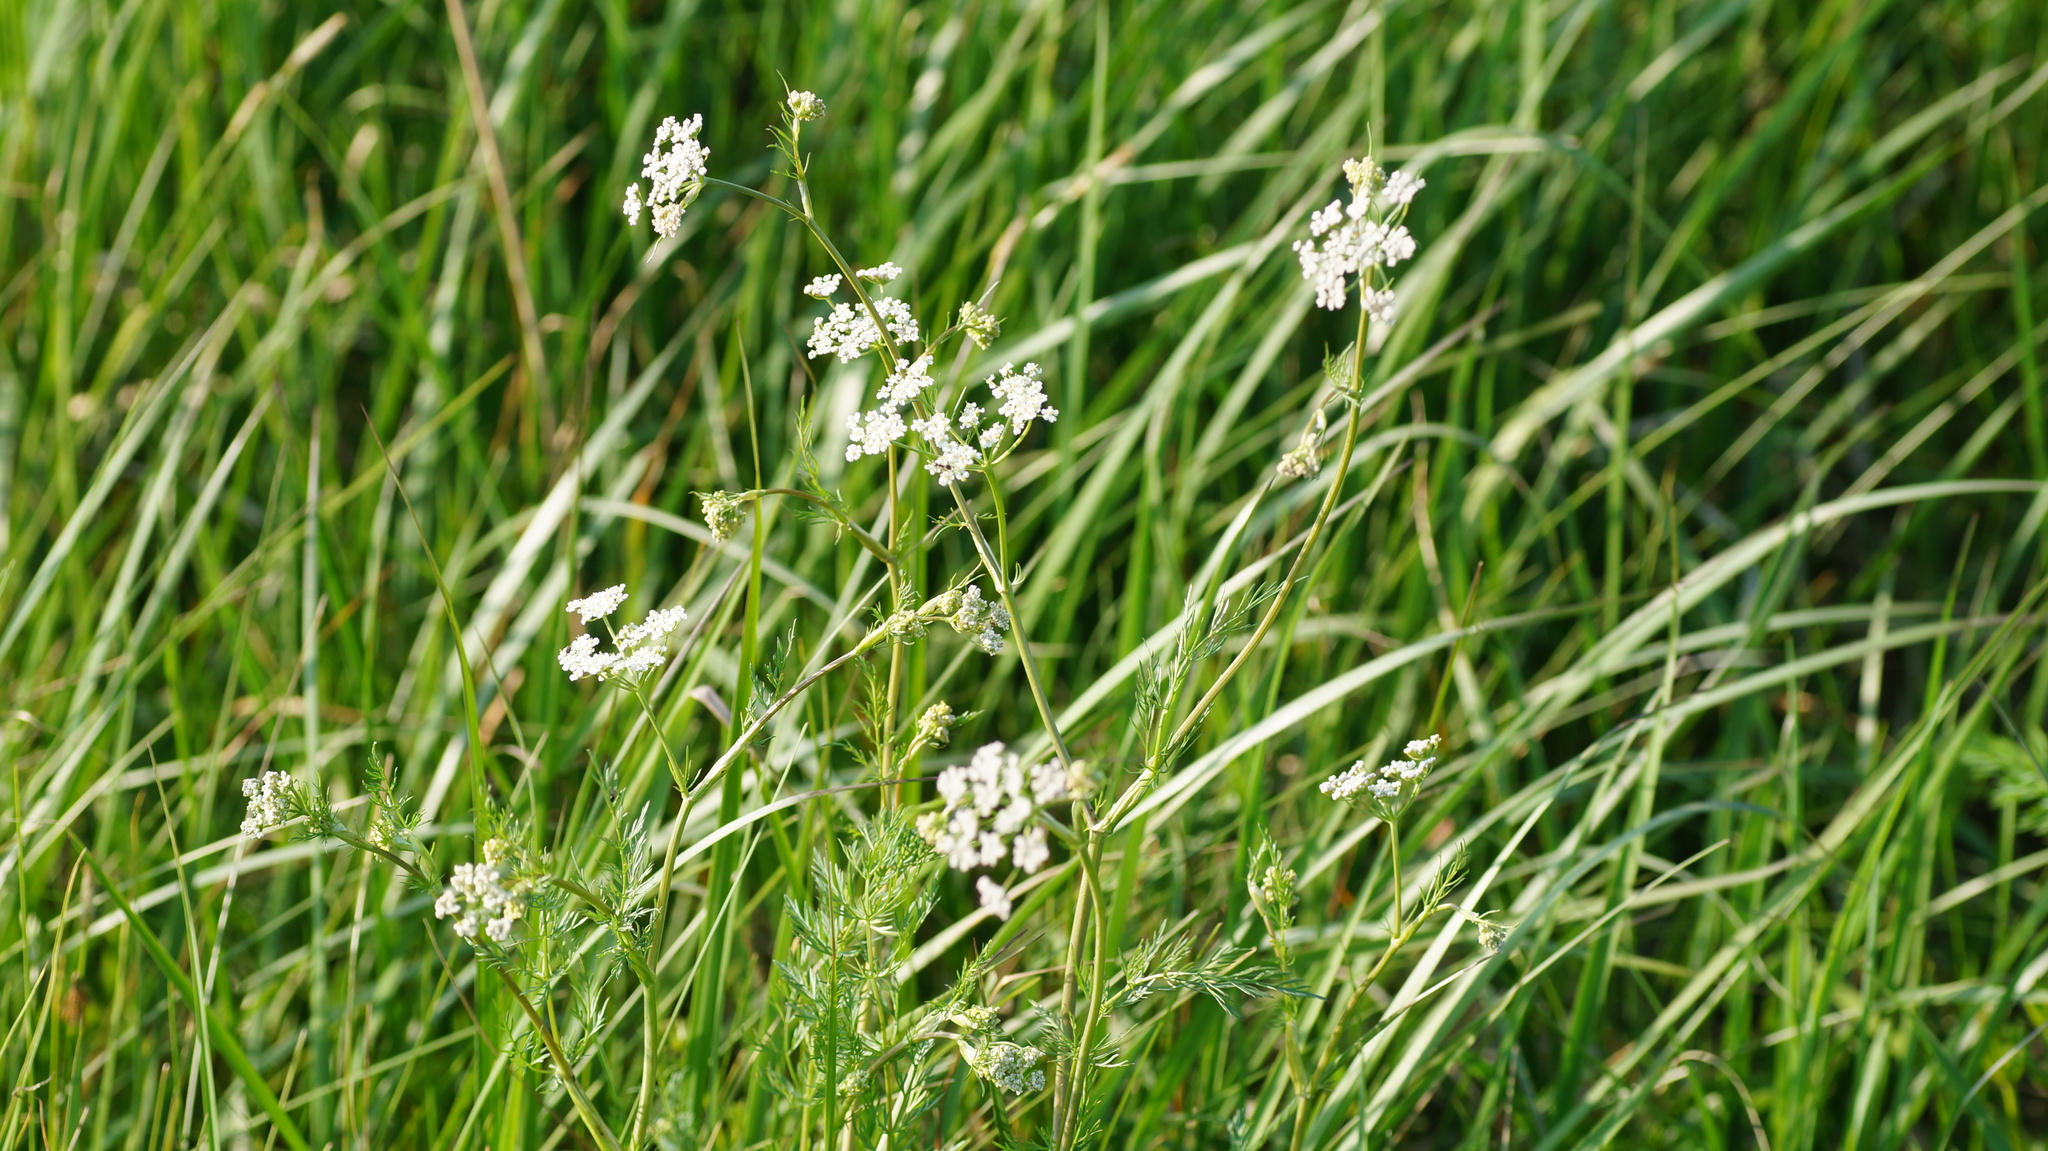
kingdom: Plantae
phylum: Tracheophyta
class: Magnoliopsida
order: Apiales
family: Apiaceae
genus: Carum
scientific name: Carum carvi
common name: Caraway
